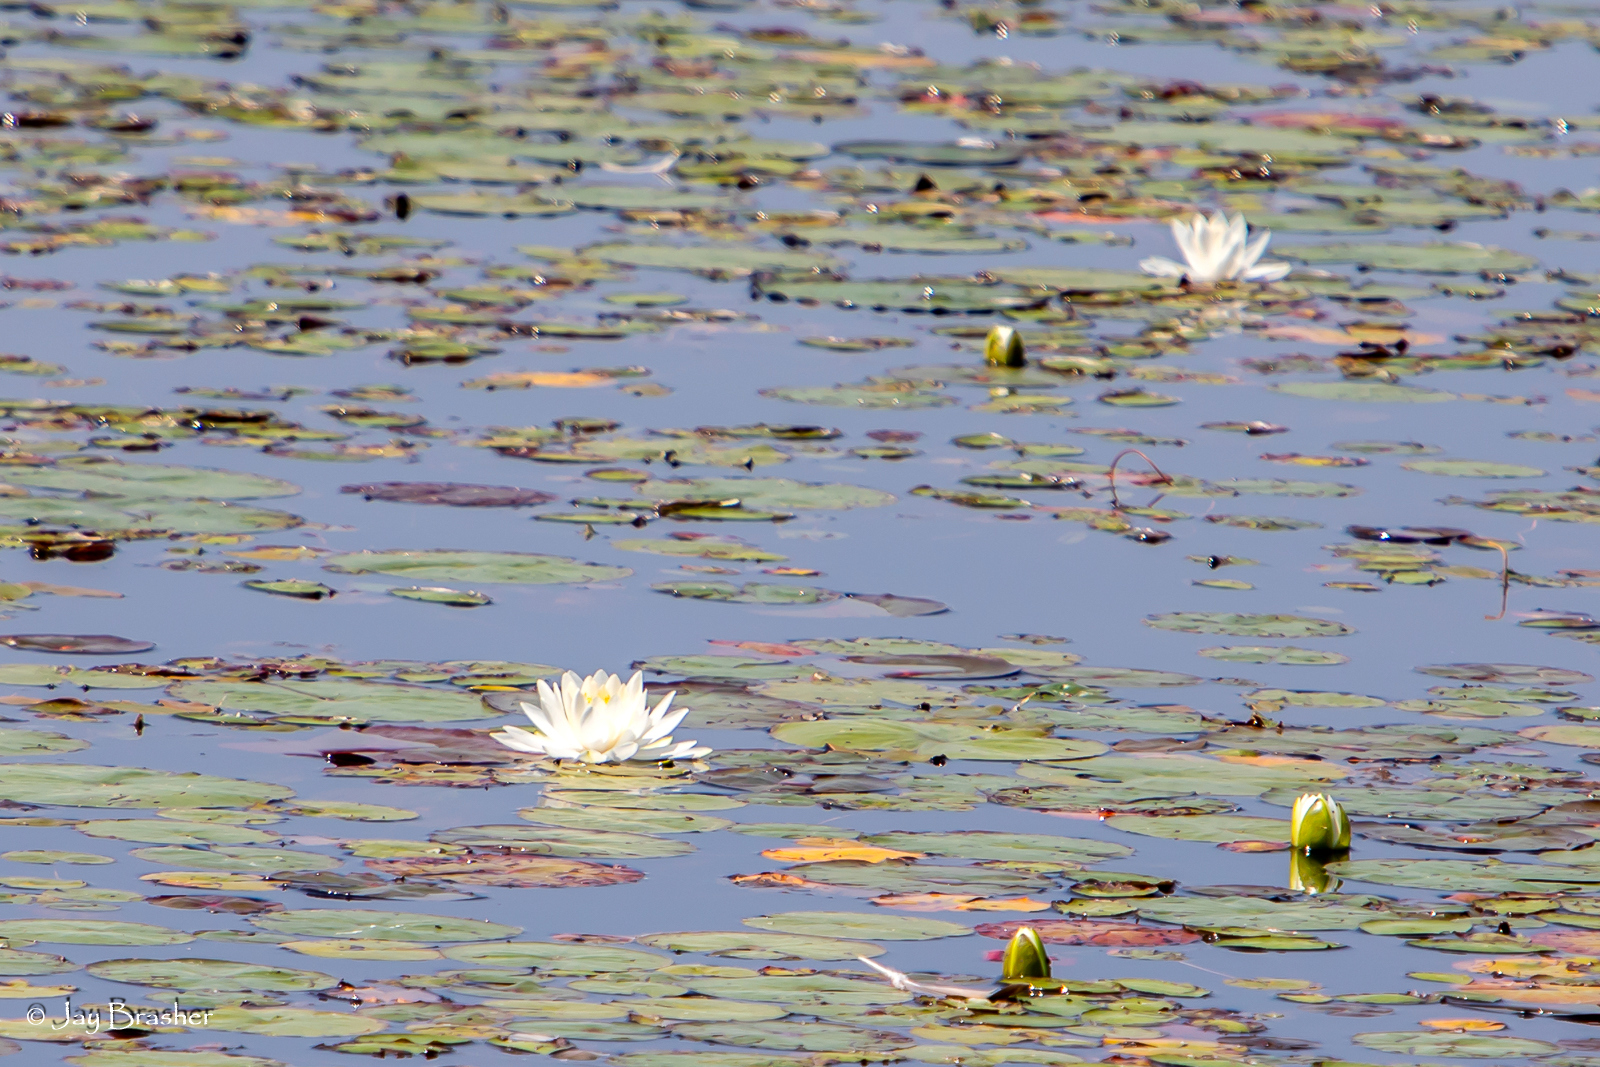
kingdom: Plantae
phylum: Tracheophyta
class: Magnoliopsida
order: Nymphaeales
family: Nymphaeaceae
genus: Nymphaea
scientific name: Nymphaea odorata
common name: Fragrant water-lily
